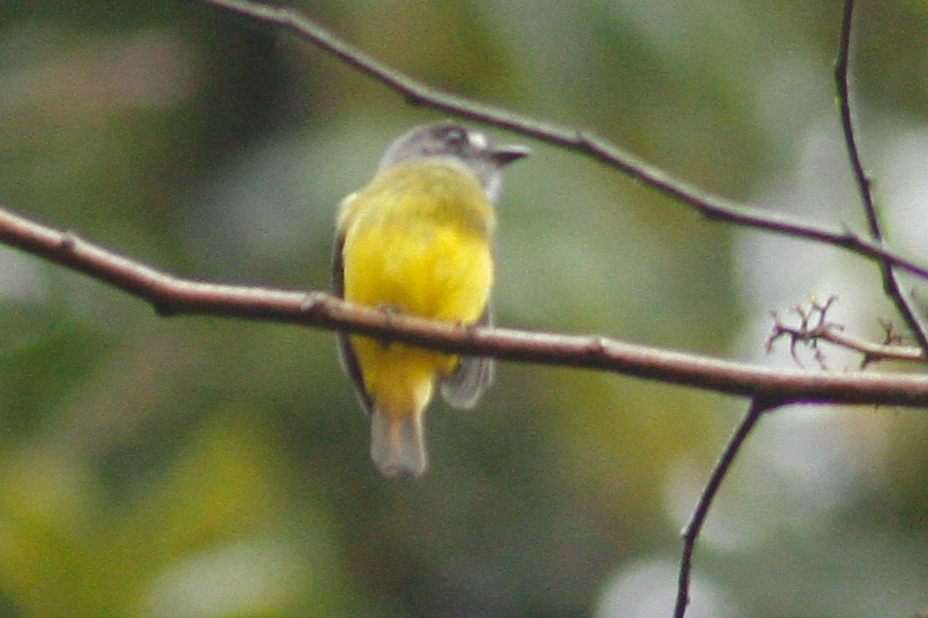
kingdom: Animalia
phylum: Chordata
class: Aves
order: Passeriformes
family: Tyrannidae
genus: Myiotriccus
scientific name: Myiotriccus ornatus
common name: Ornate flycatcher
